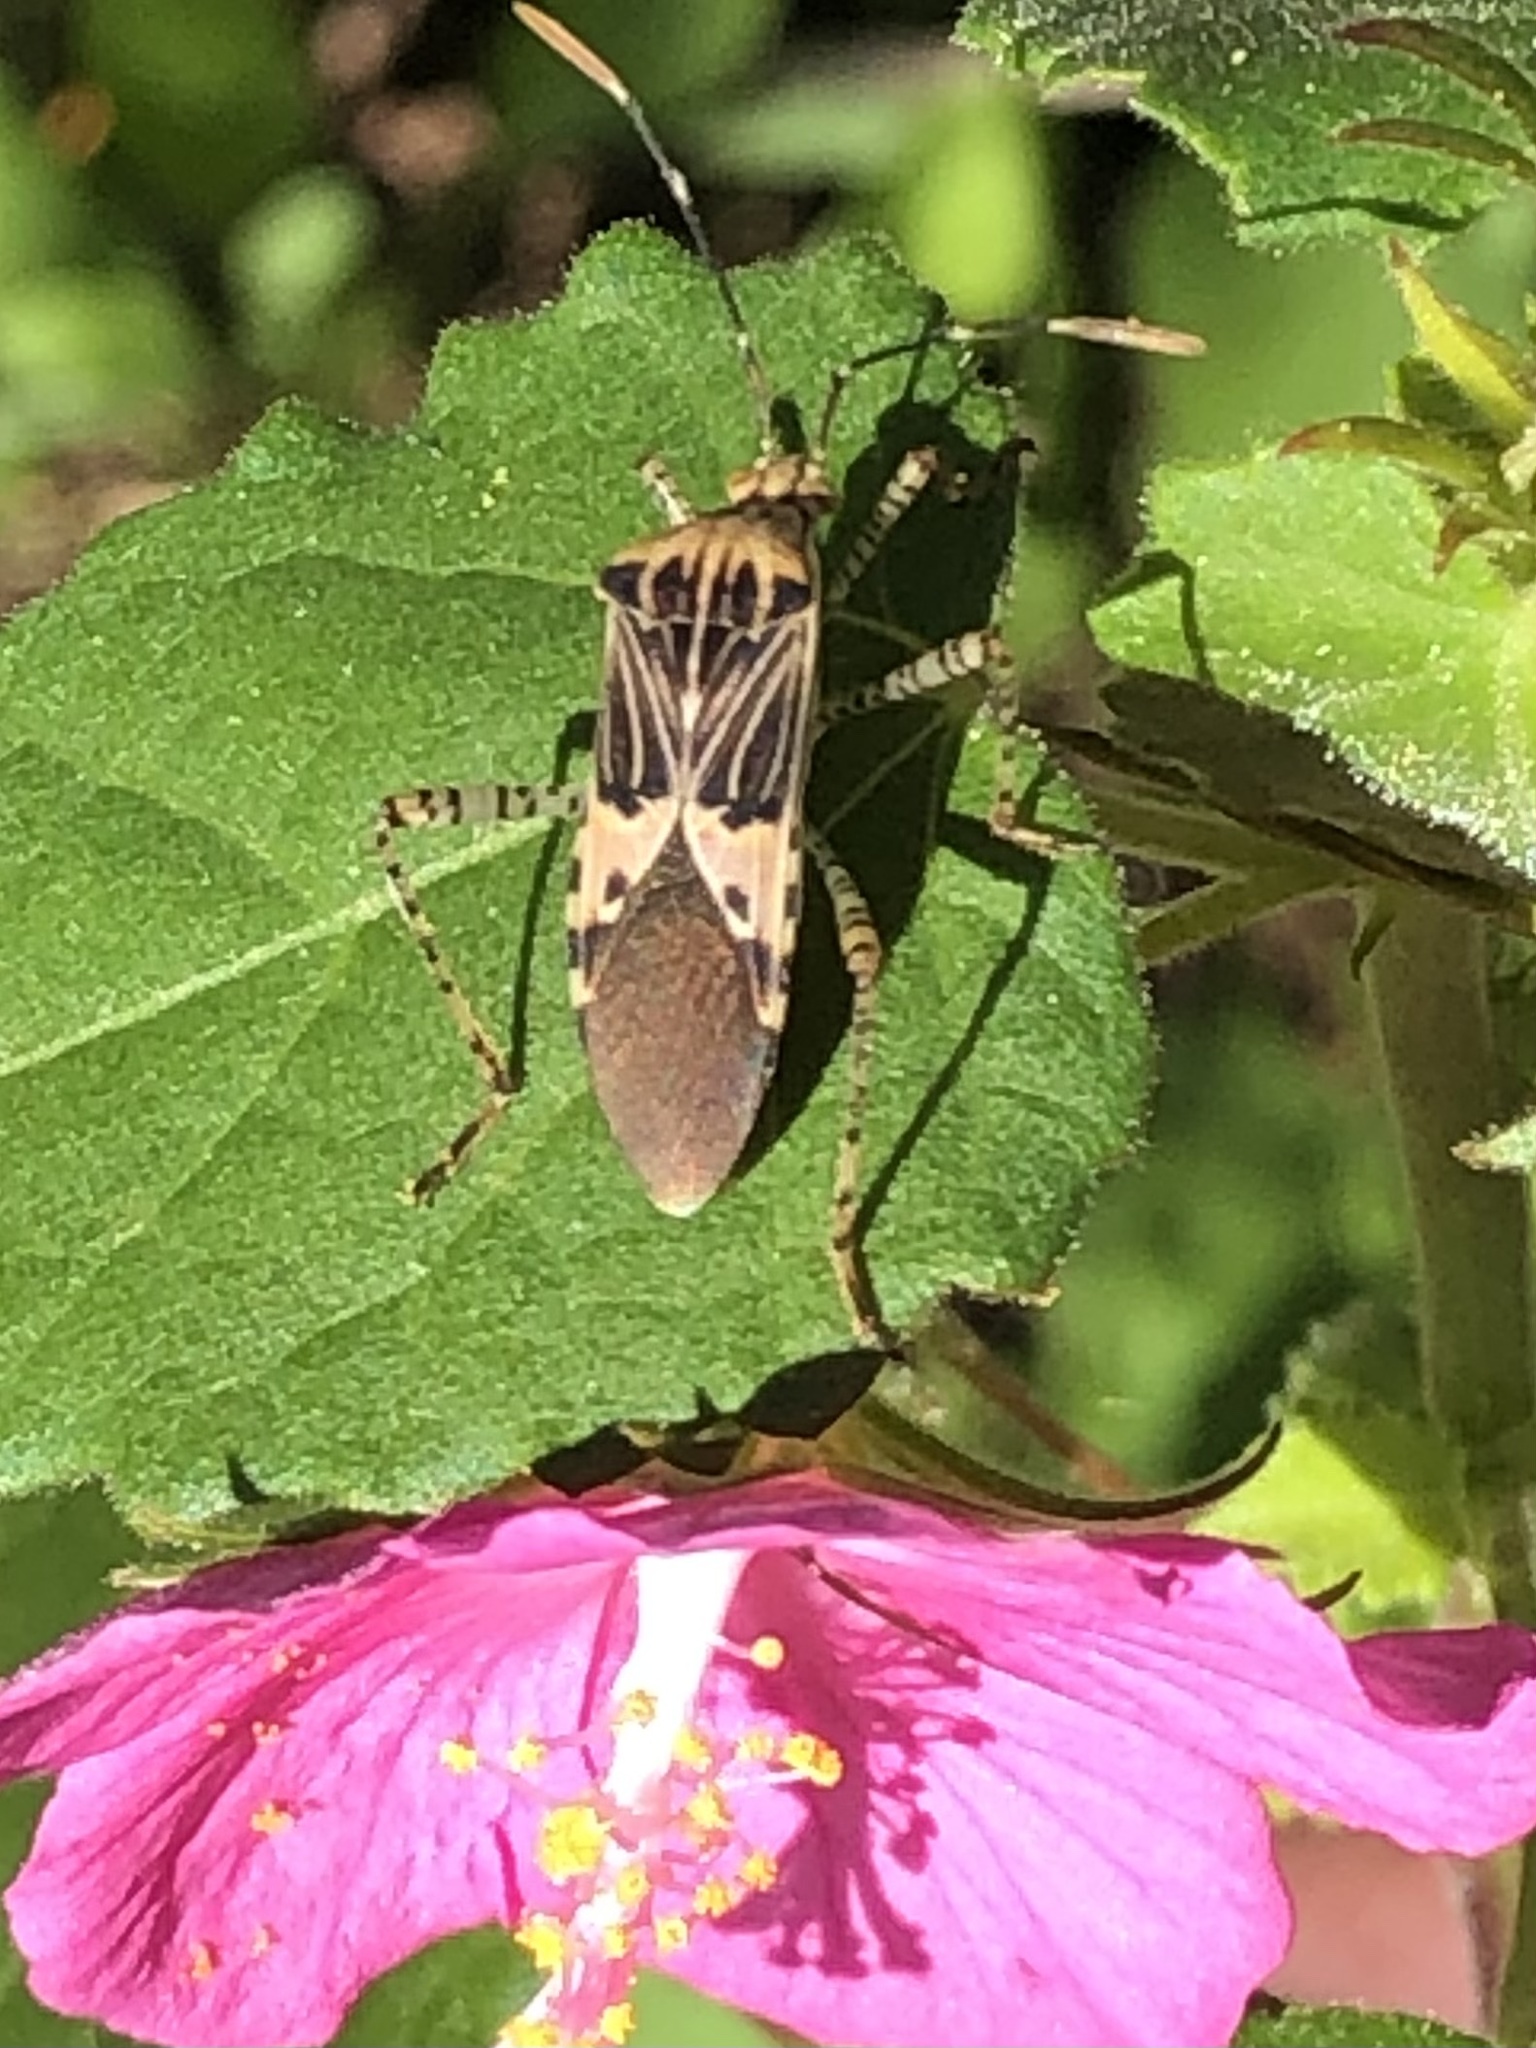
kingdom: Animalia
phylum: Arthropoda
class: Insecta
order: Hemiptera
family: Coreidae
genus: Hypselonotus
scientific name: Hypselonotus punctiventris
